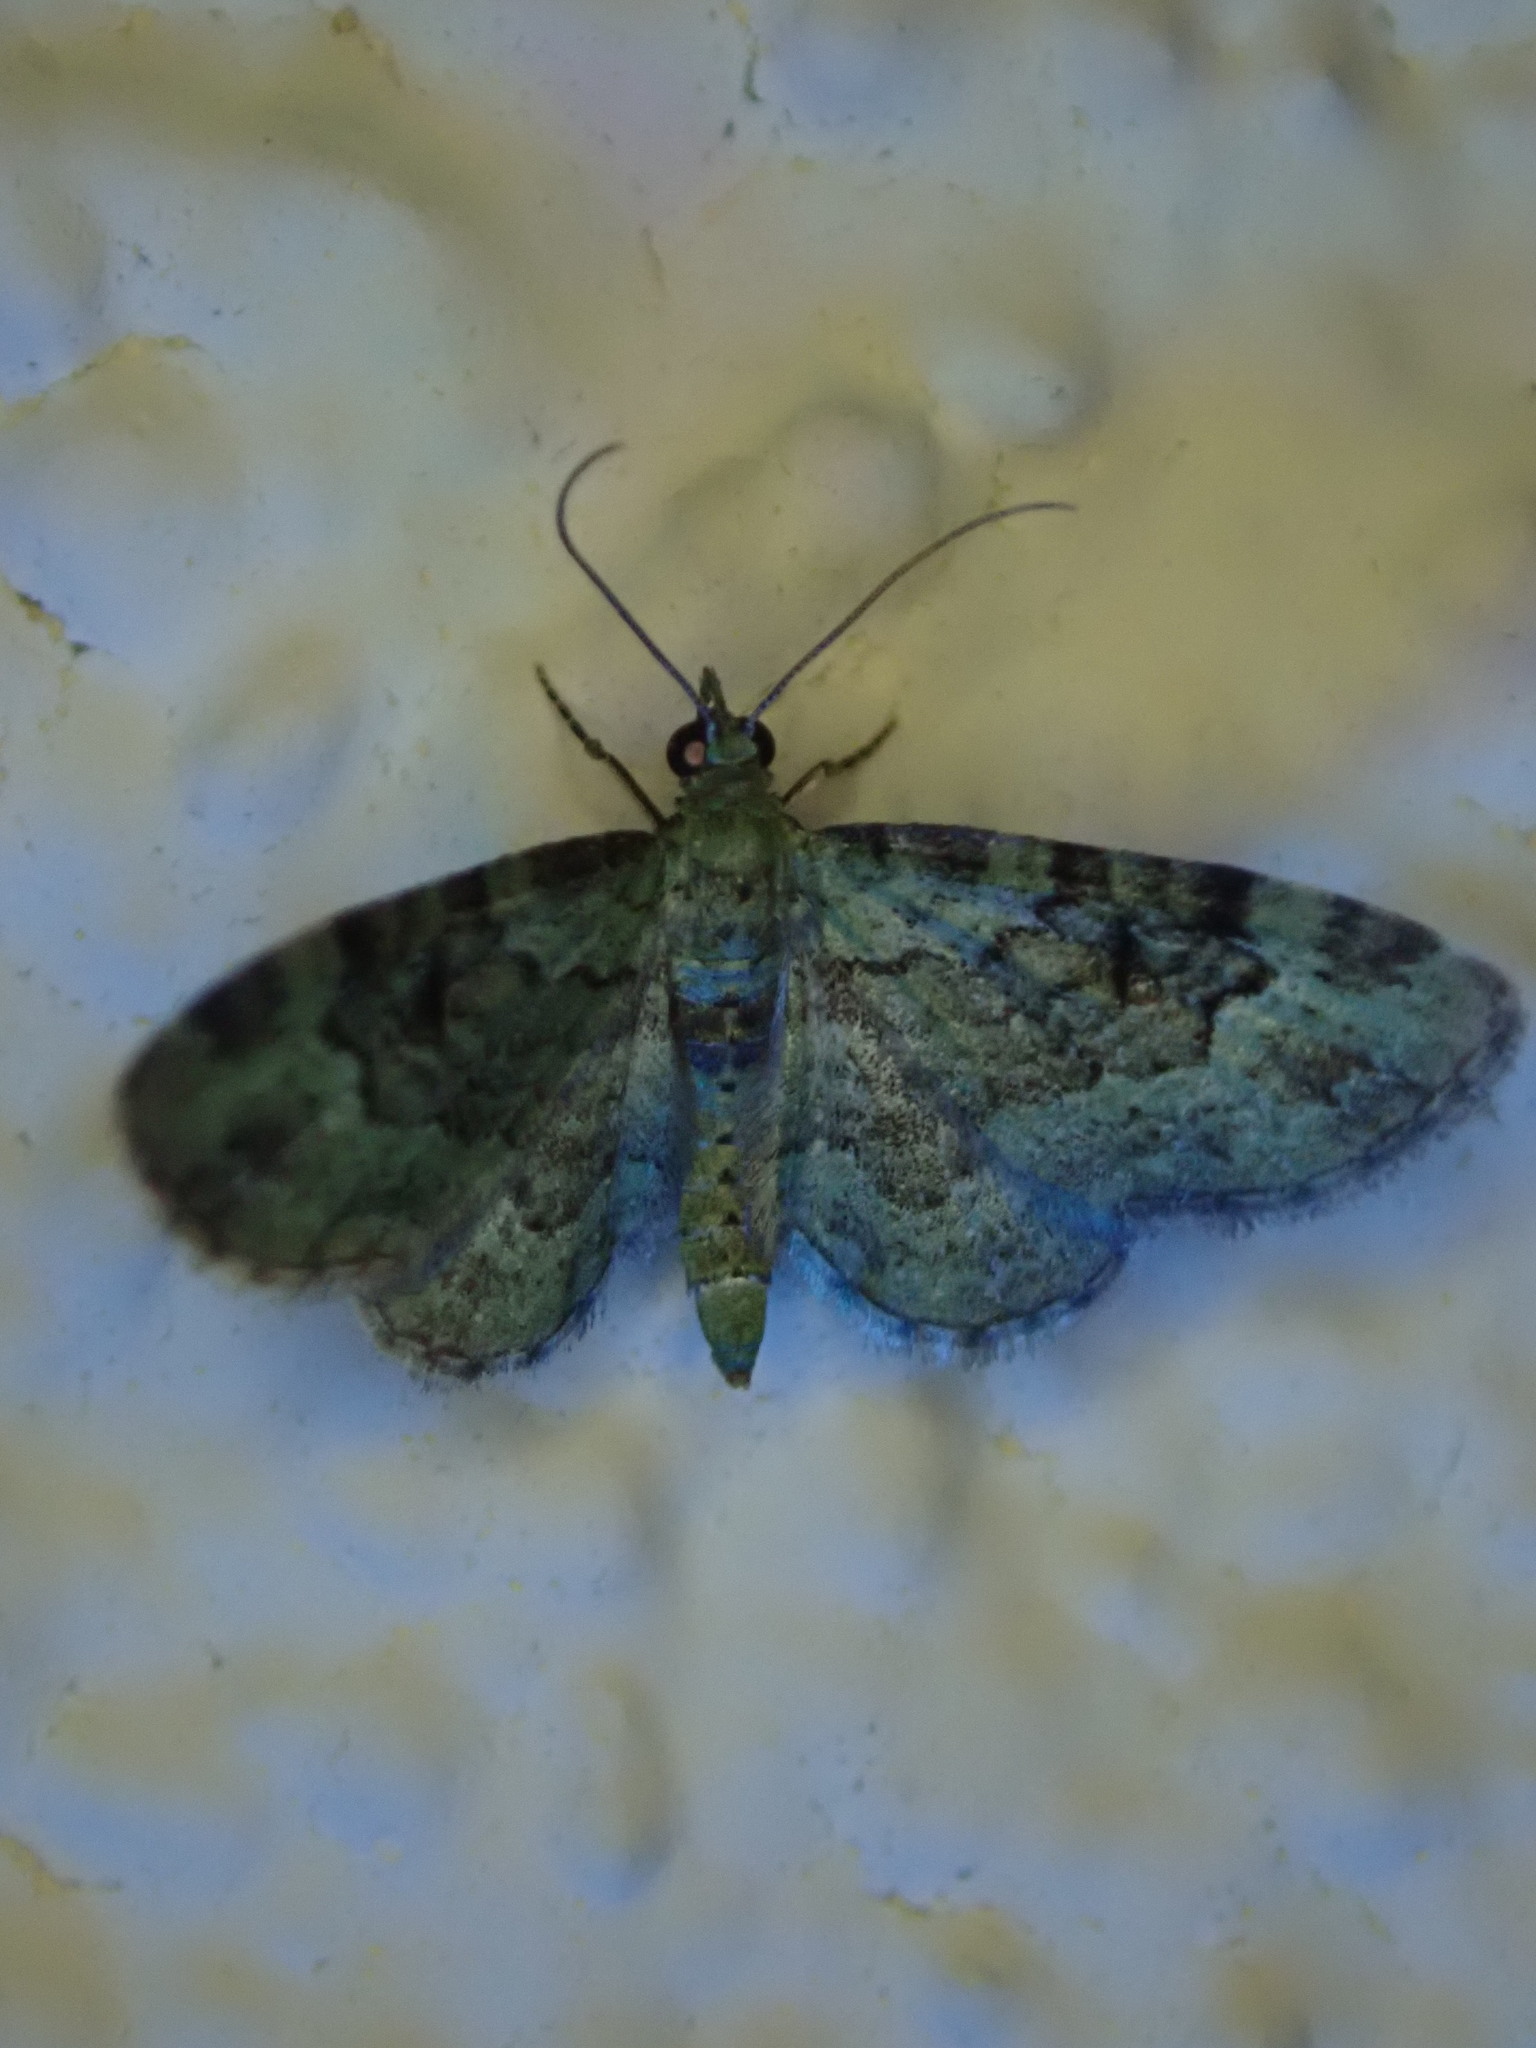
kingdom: Animalia
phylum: Arthropoda
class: Insecta
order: Lepidoptera
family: Geometridae
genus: Pasiphila
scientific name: Pasiphila rectangulata
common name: Green pug
